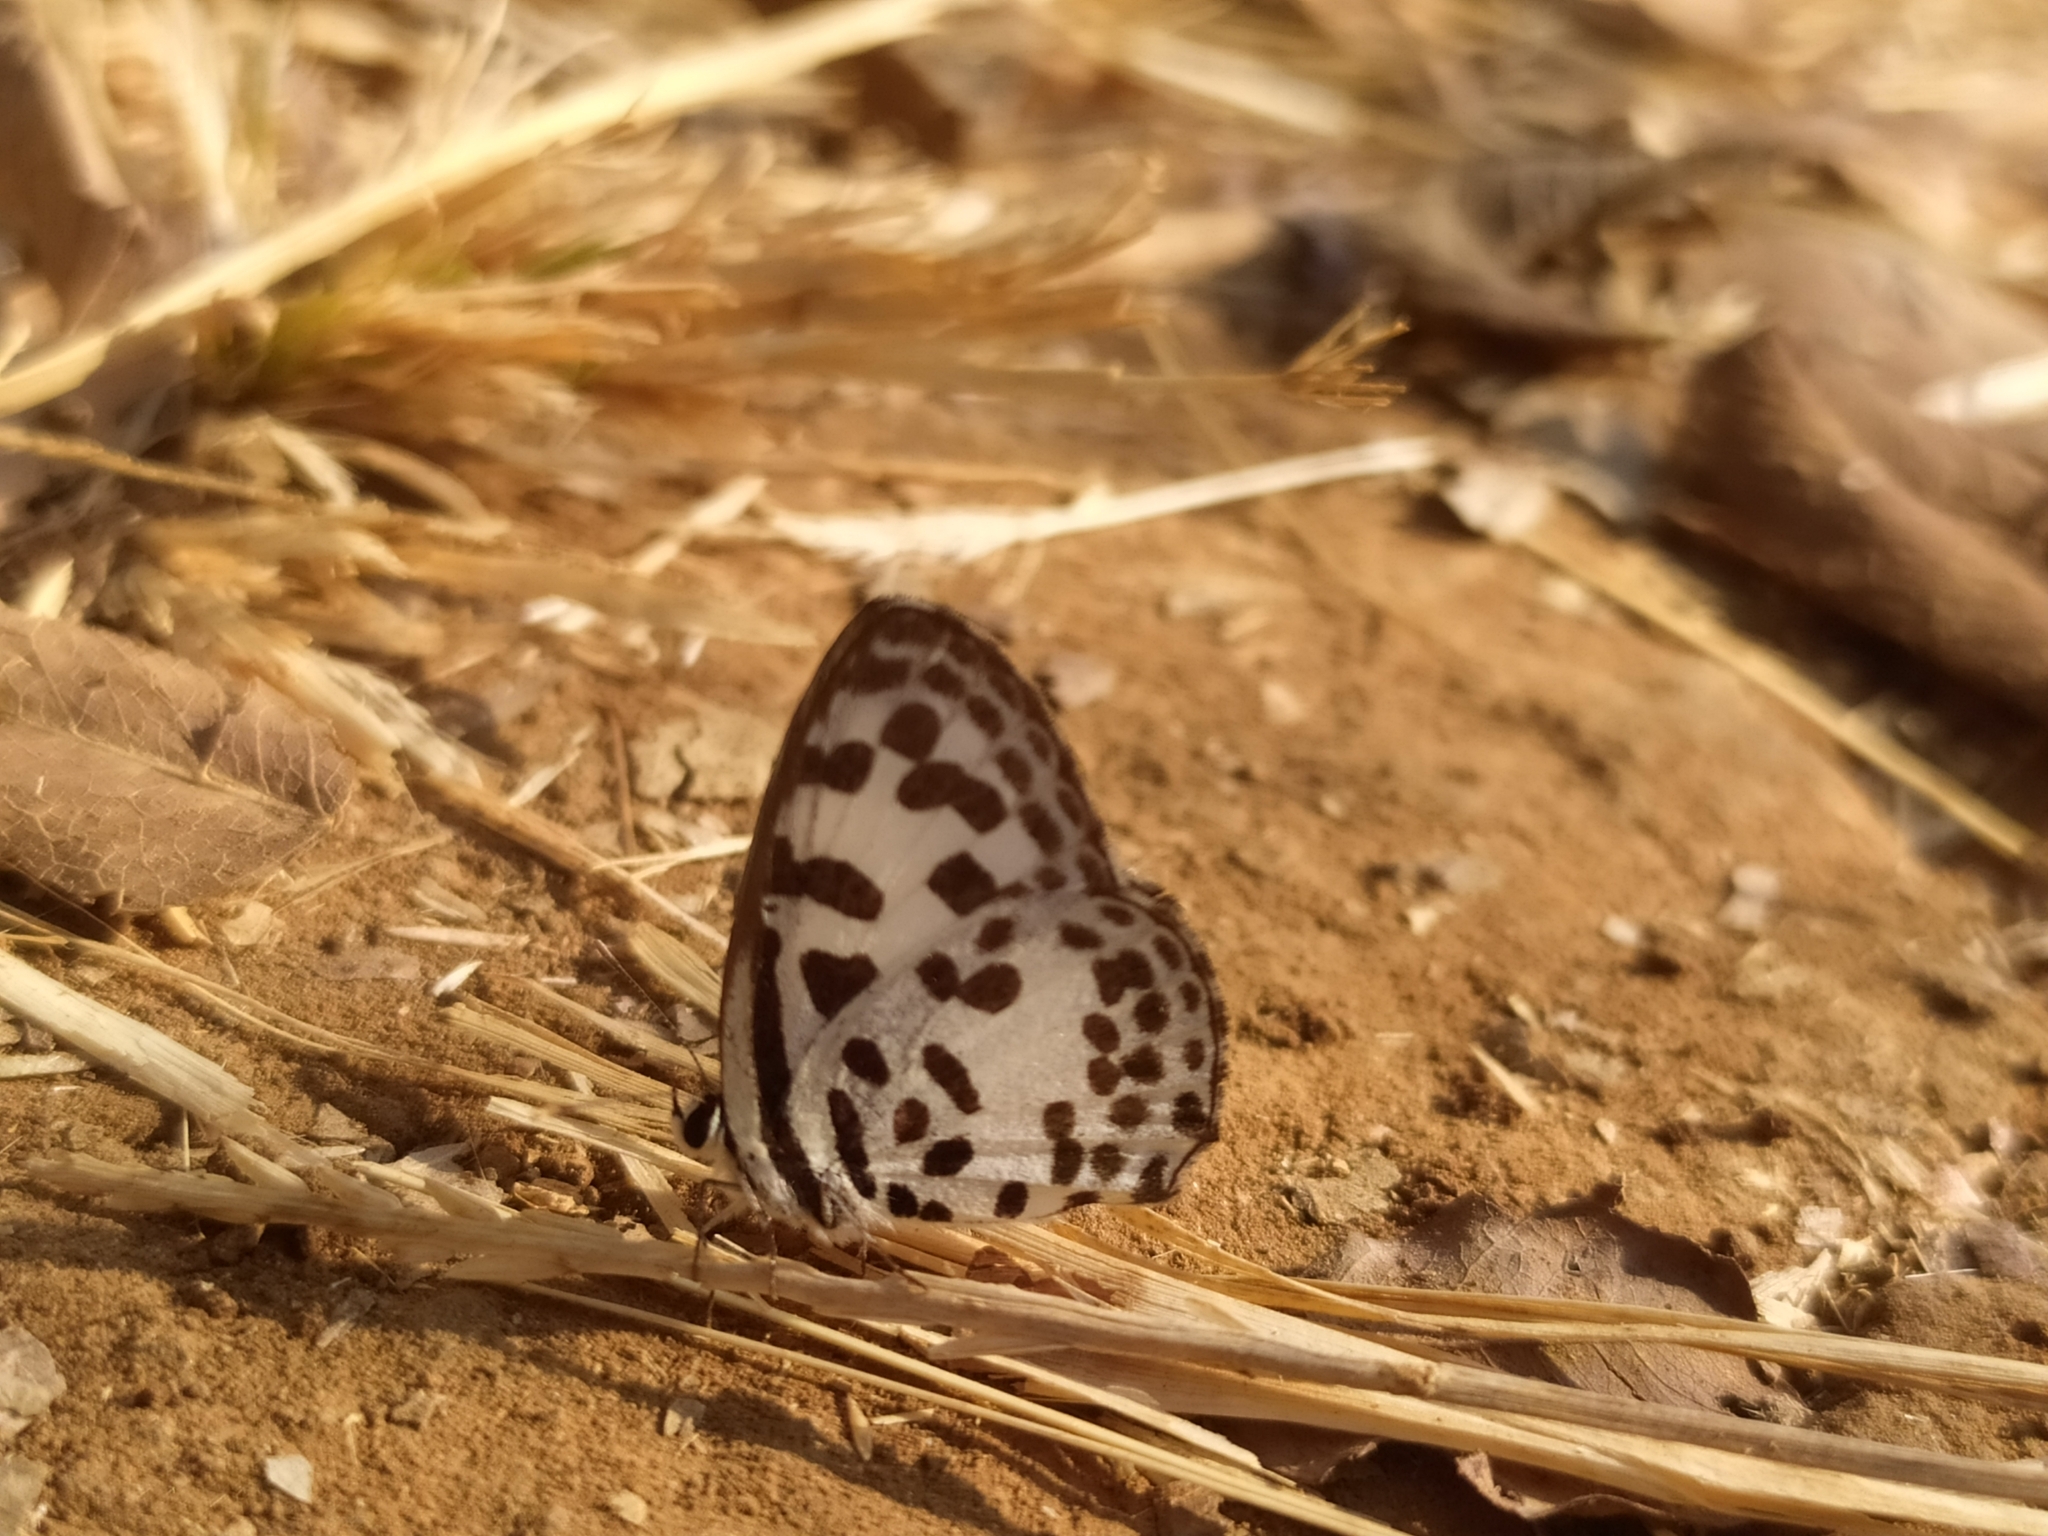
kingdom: Animalia
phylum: Arthropoda
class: Insecta
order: Lepidoptera
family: Lycaenidae
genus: Castalius
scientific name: Castalius rosimon
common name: Common pierrot
